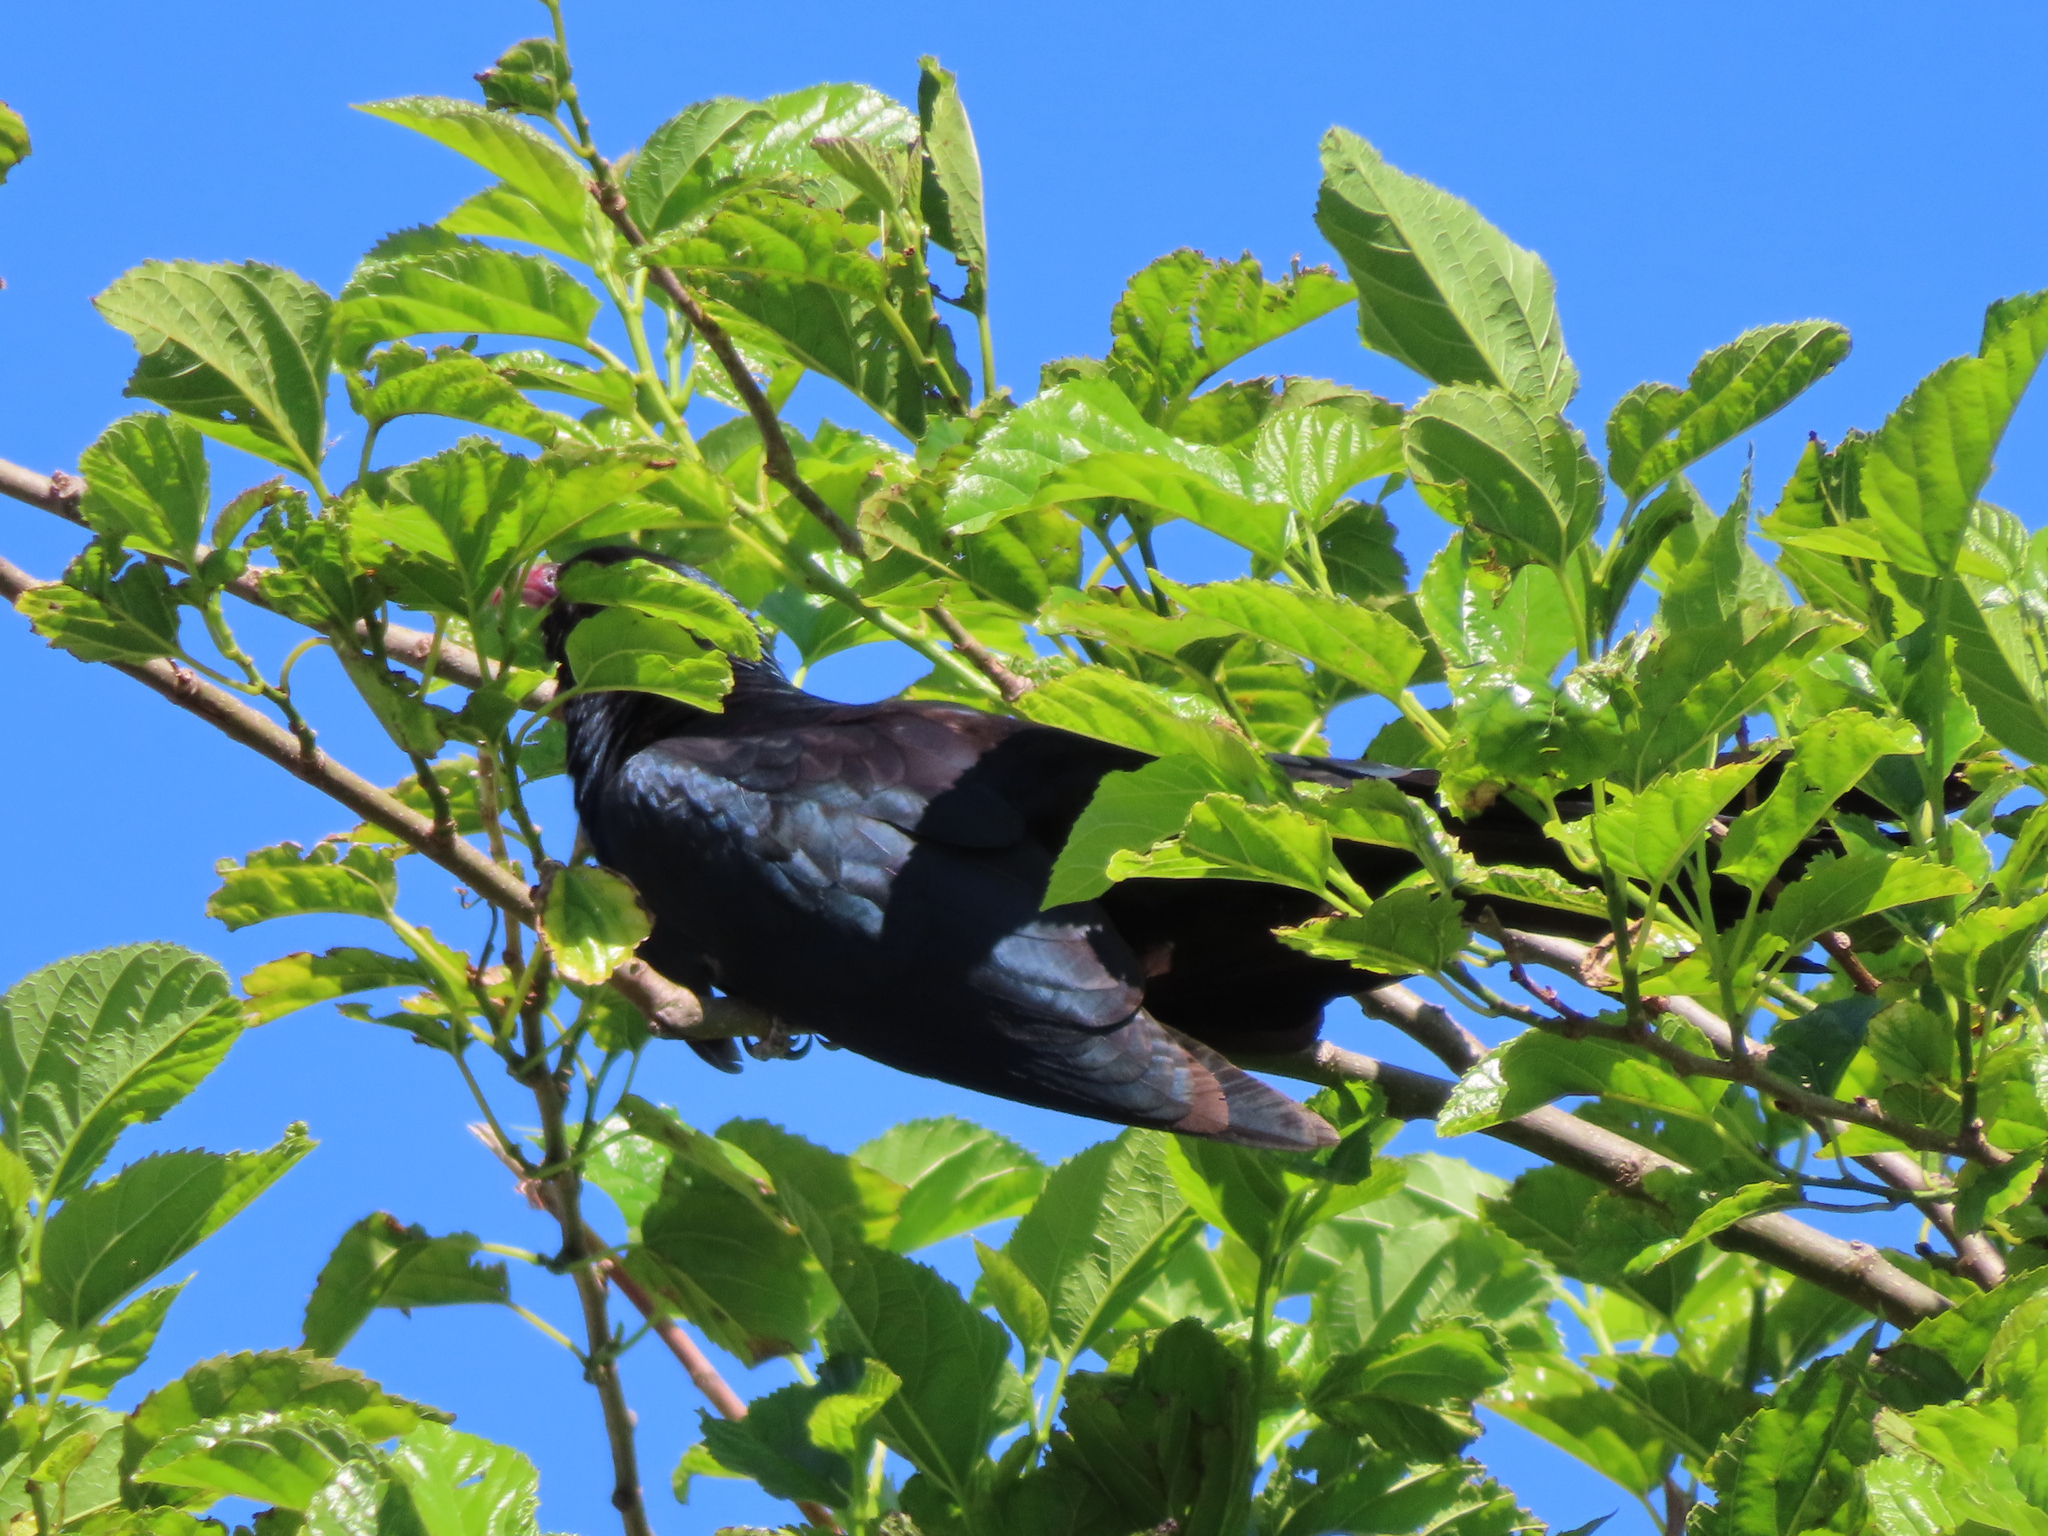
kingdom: Animalia
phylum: Chordata
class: Aves
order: Cuculiformes
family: Cuculidae
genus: Eudynamys
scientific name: Eudynamys orientalis
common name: Pacific koel
